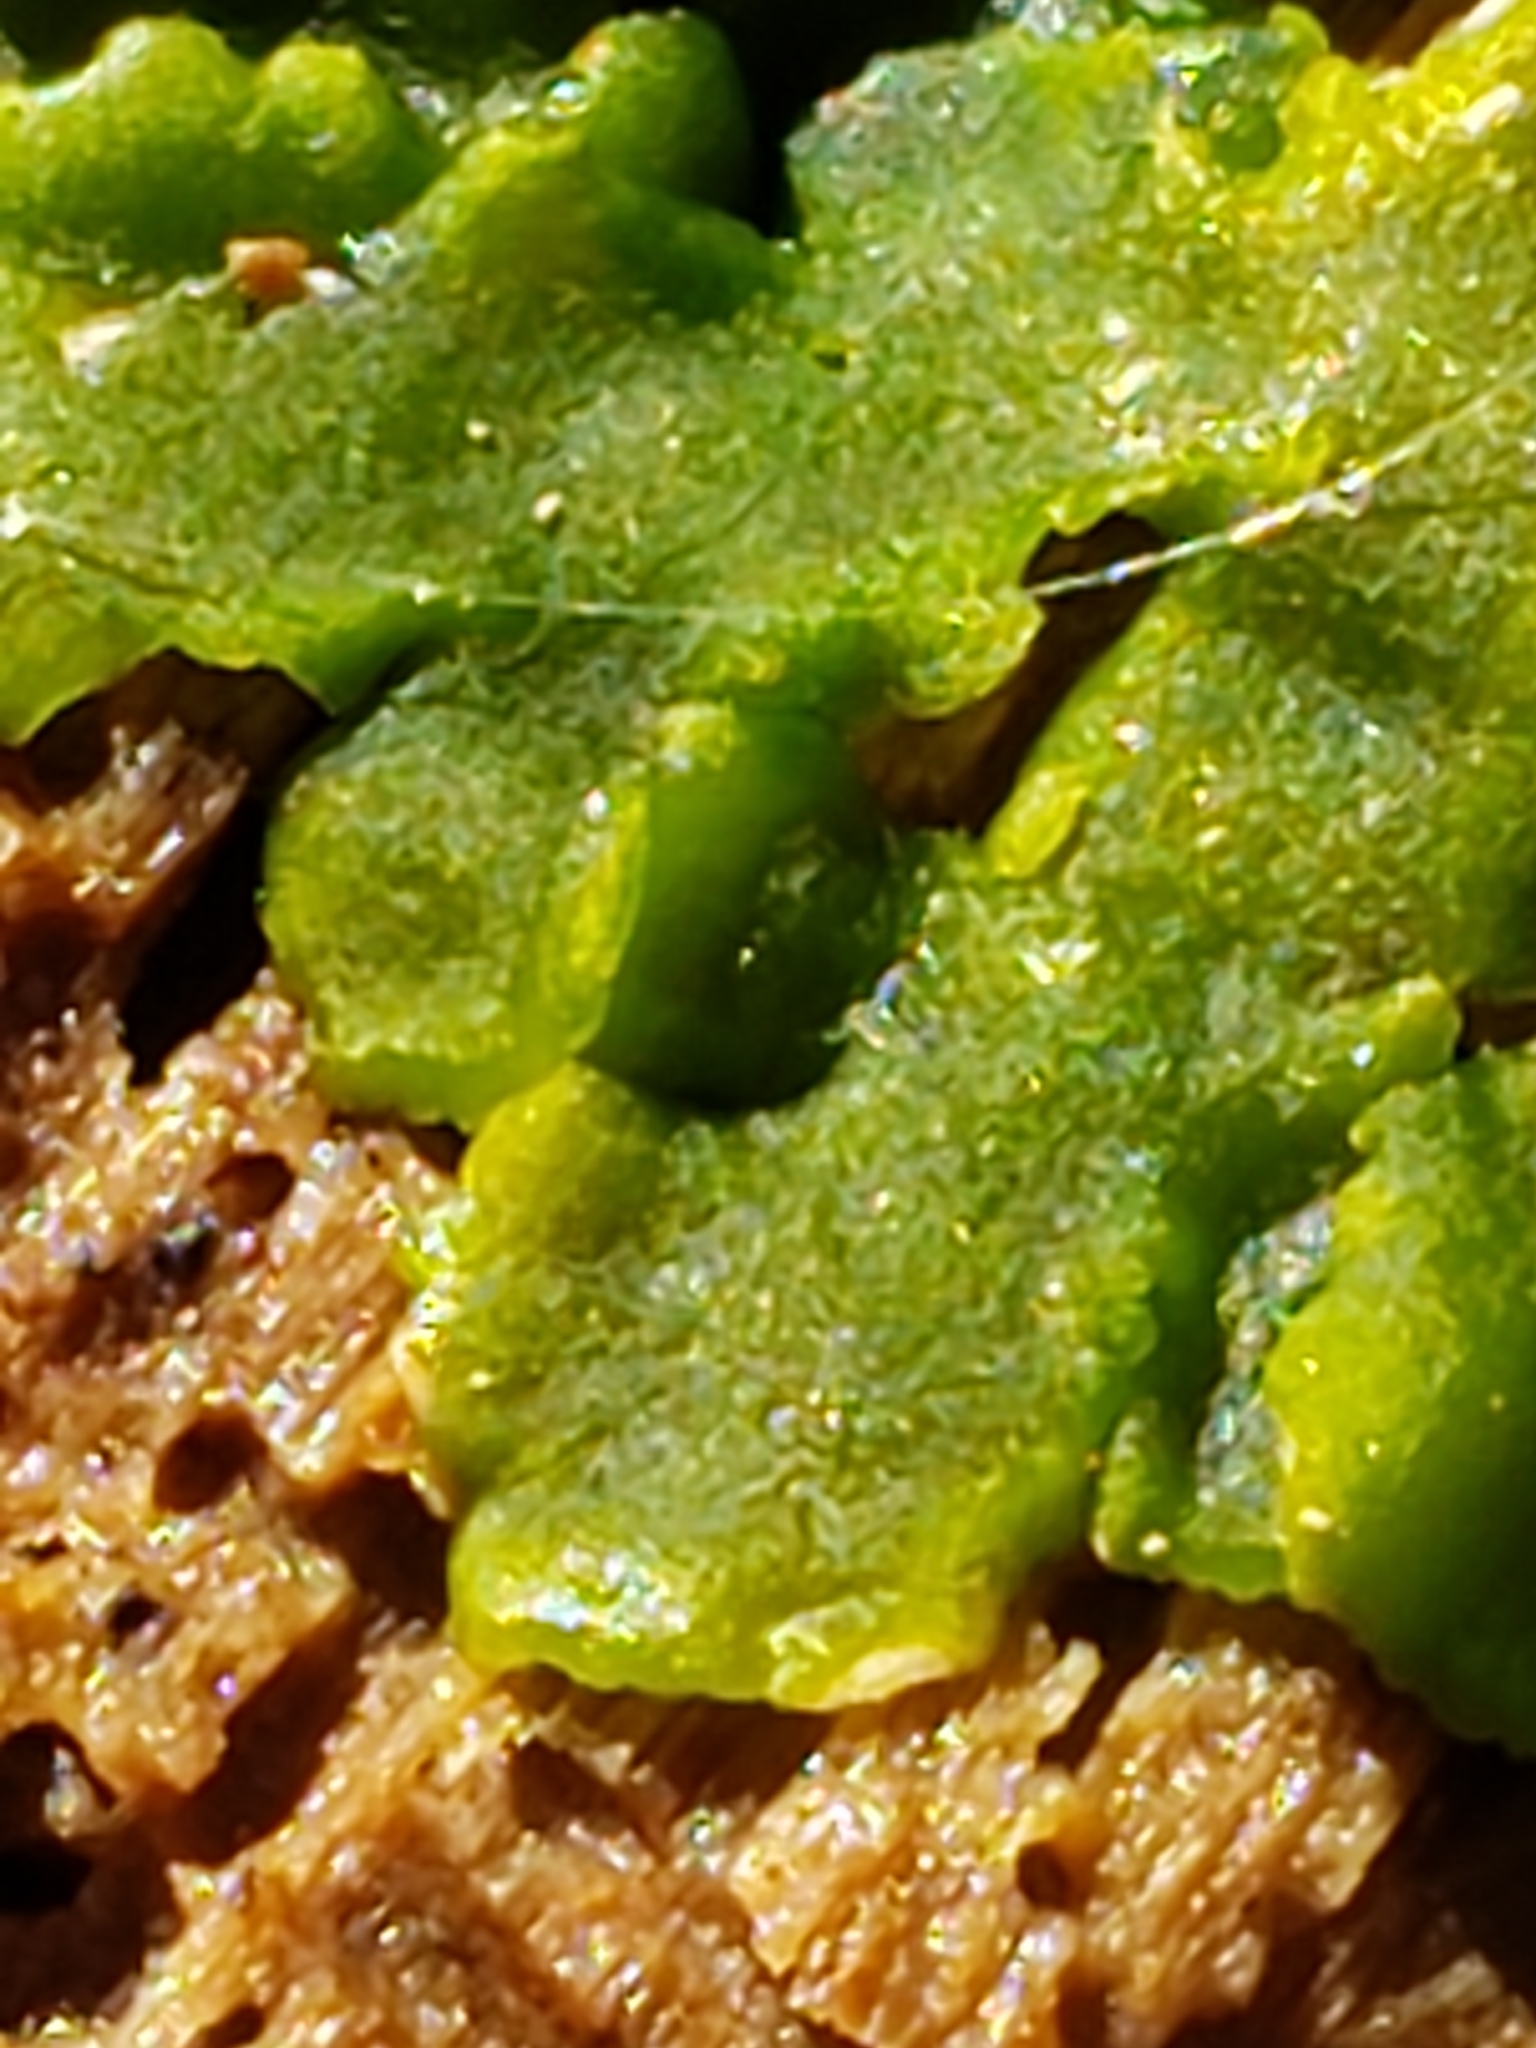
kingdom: Plantae
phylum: Marchantiophyta
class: Jungermanniopsida
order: Metzgeriales
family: Aneuraceae
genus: Aneura
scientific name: Aneura pinguis
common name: Common greasewort
